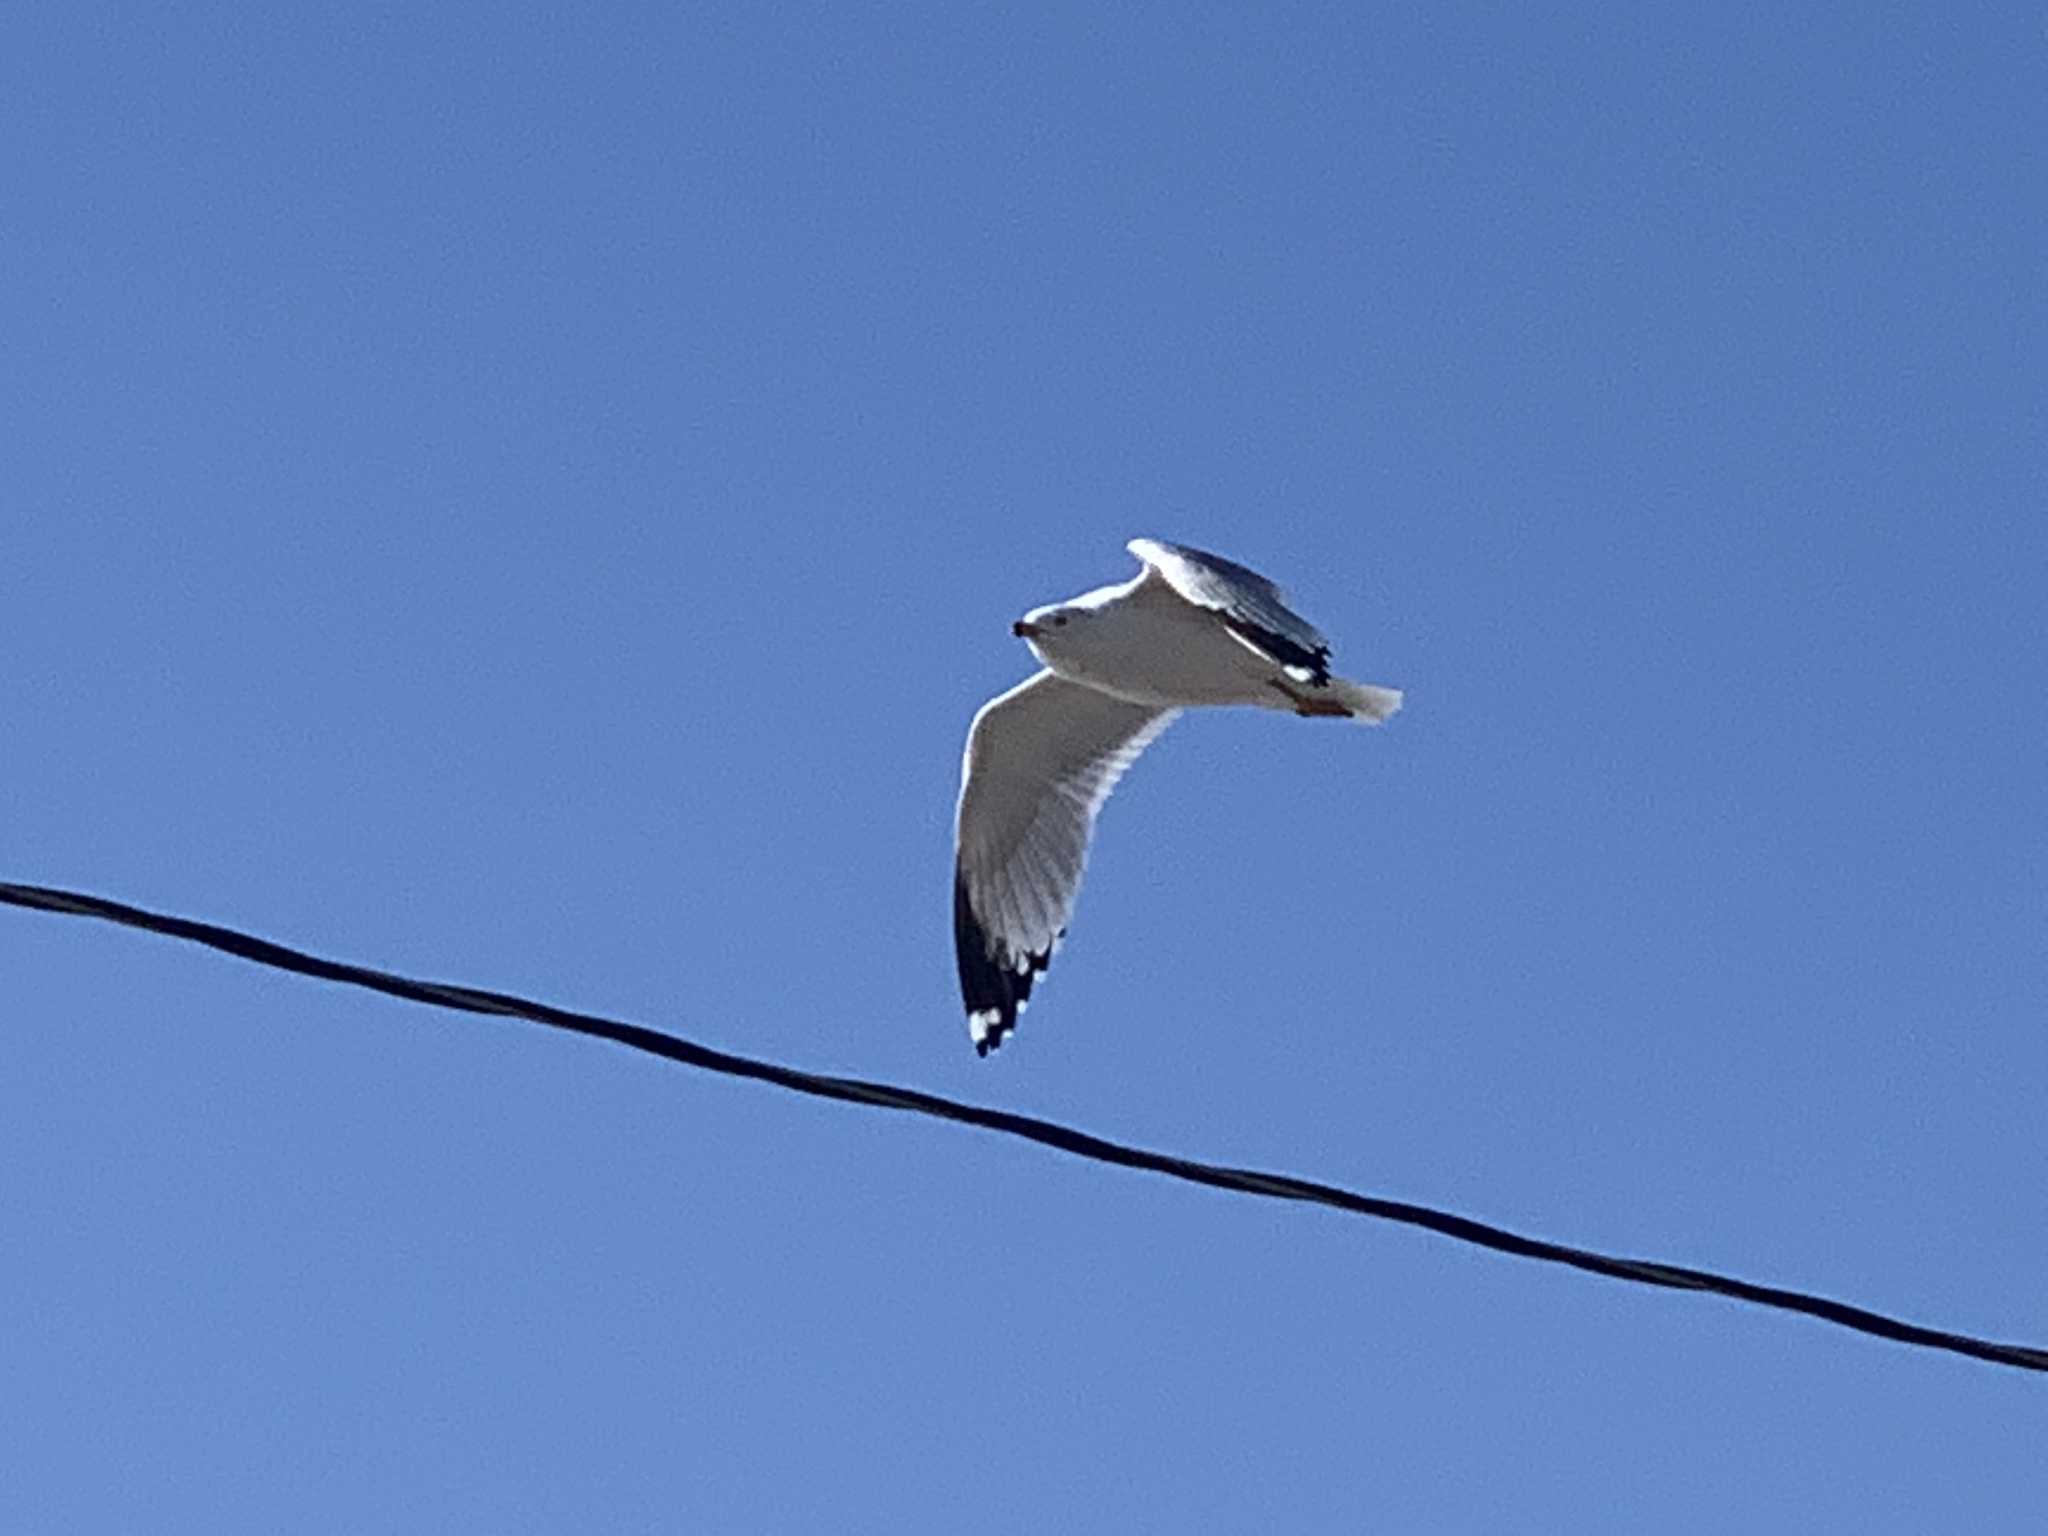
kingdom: Animalia
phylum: Chordata
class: Aves
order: Charadriiformes
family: Laridae
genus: Larus
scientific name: Larus delawarensis
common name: Ring-billed gull
